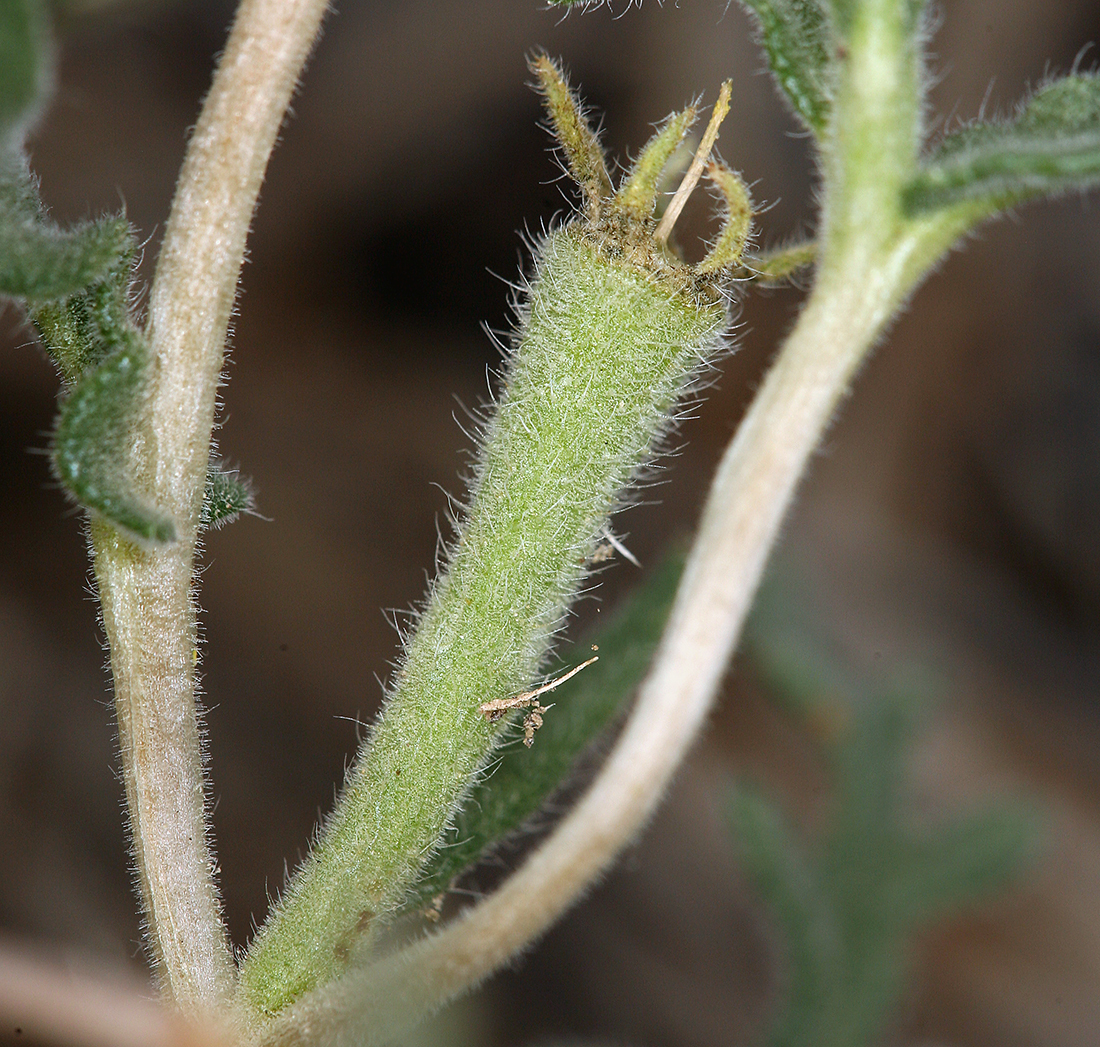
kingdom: Plantae
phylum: Tracheophyta
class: Magnoliopsida
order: Cornales
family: Loasaceae
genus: Mentzelia
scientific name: Mentzelia albicaulis
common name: White-stem blazingstar
